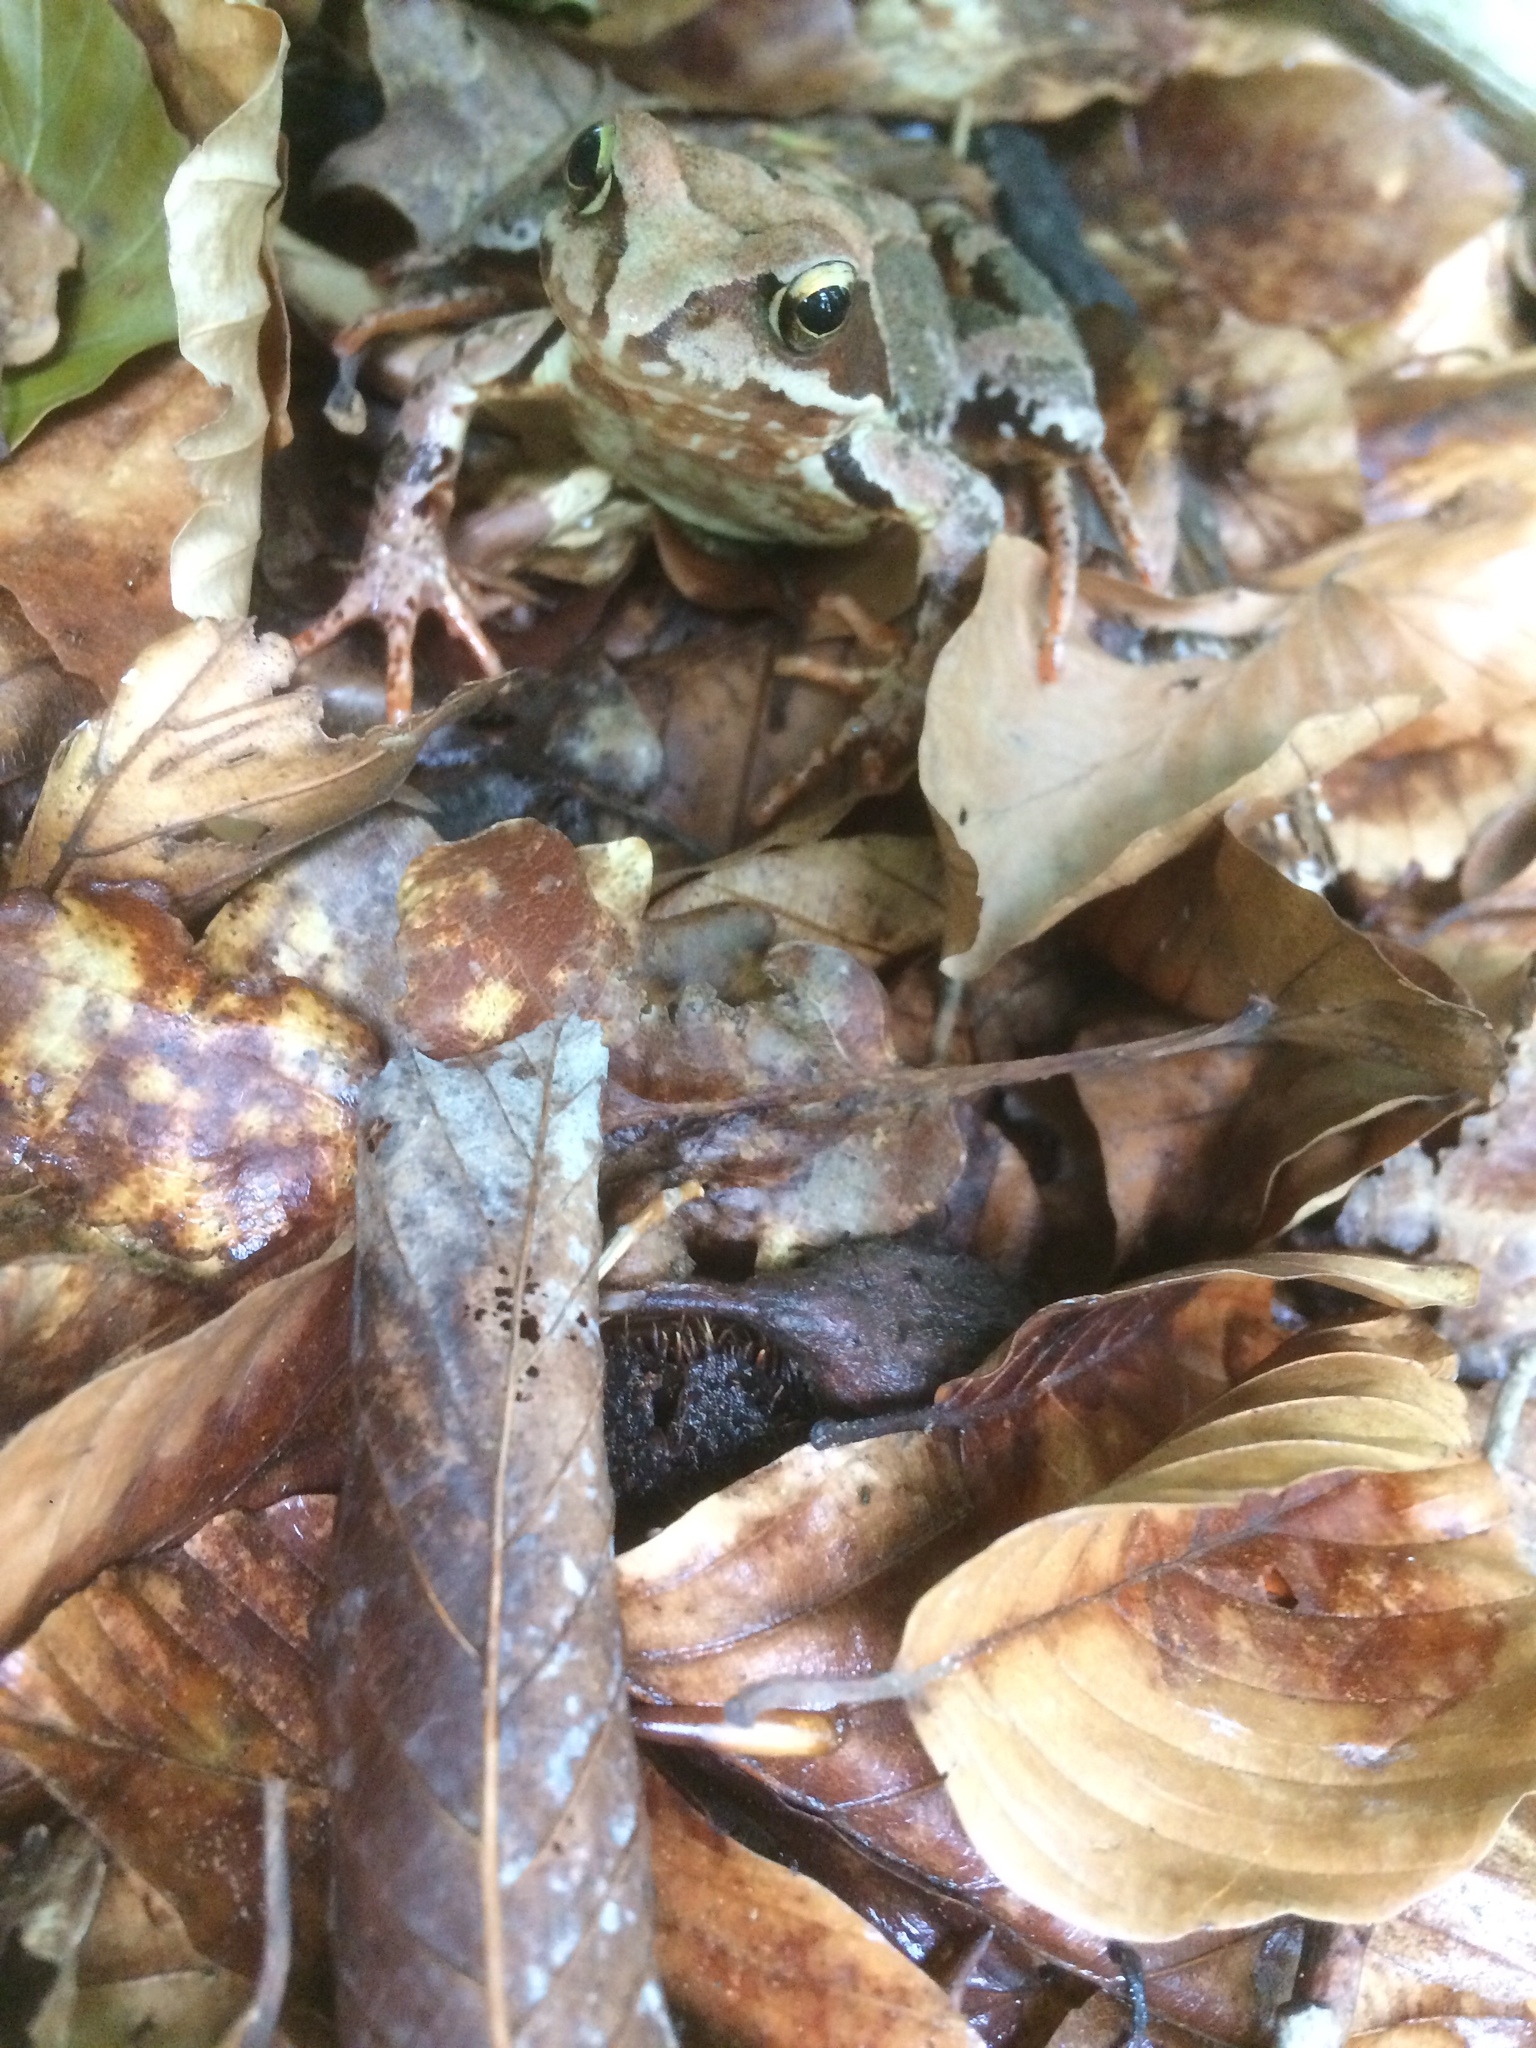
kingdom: Animalia
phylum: Chordata
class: Amphibia
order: Anura
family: Ranidae
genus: Rana
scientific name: Rana temporaria
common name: Common frog
